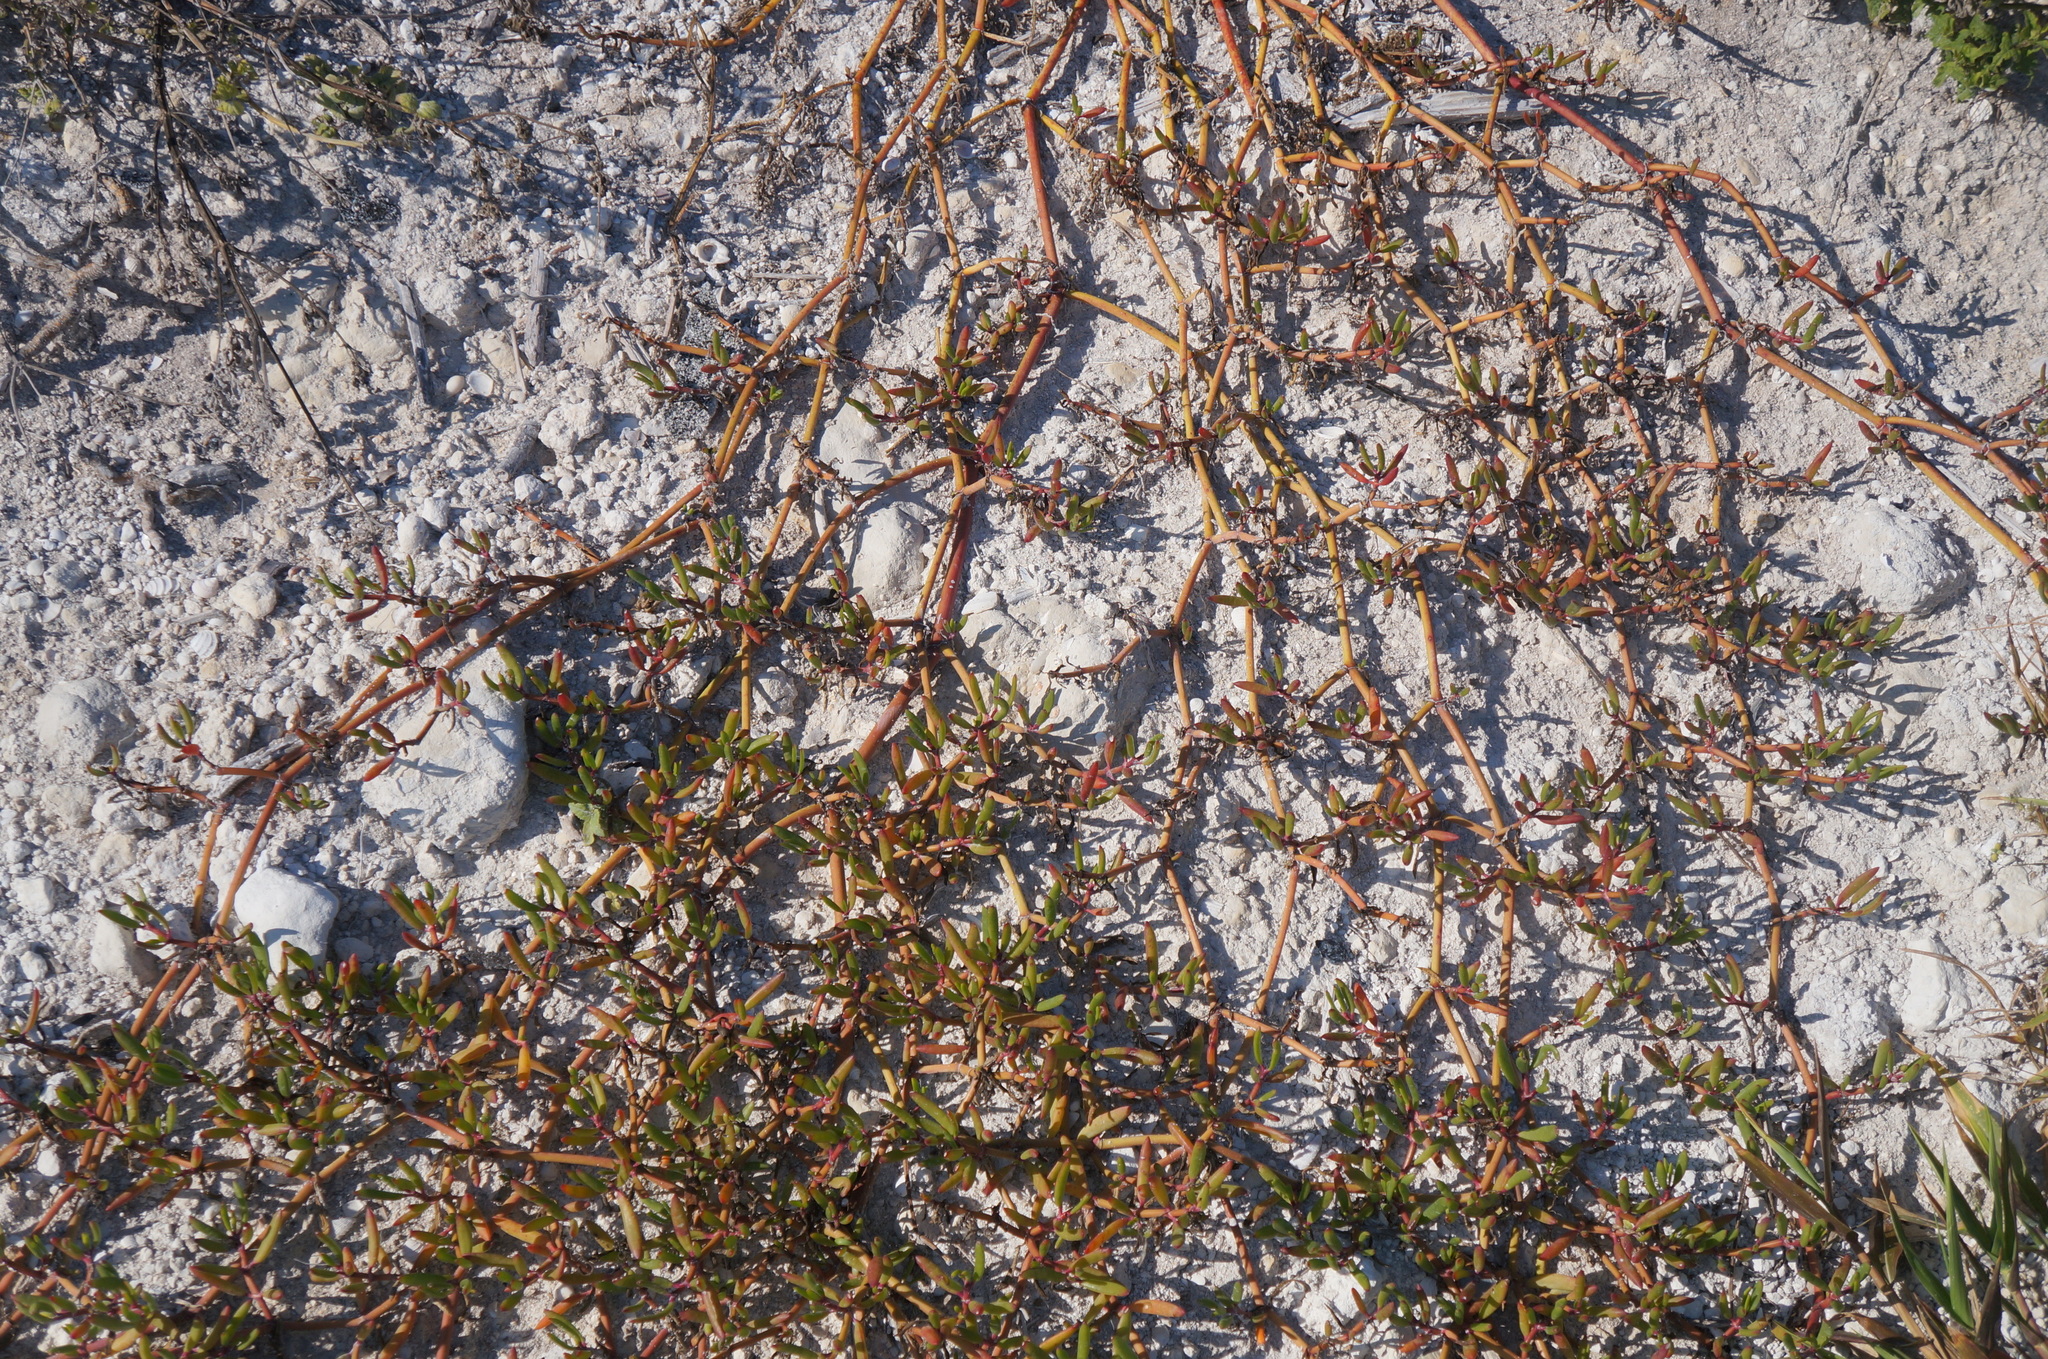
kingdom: Plantae
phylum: Tracheophyta
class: Magnoliopsida
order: Caryophyllales
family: Aizoaceae
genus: Sesuvium
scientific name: Sesuvium portulacastrum
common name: Sea-purslane
